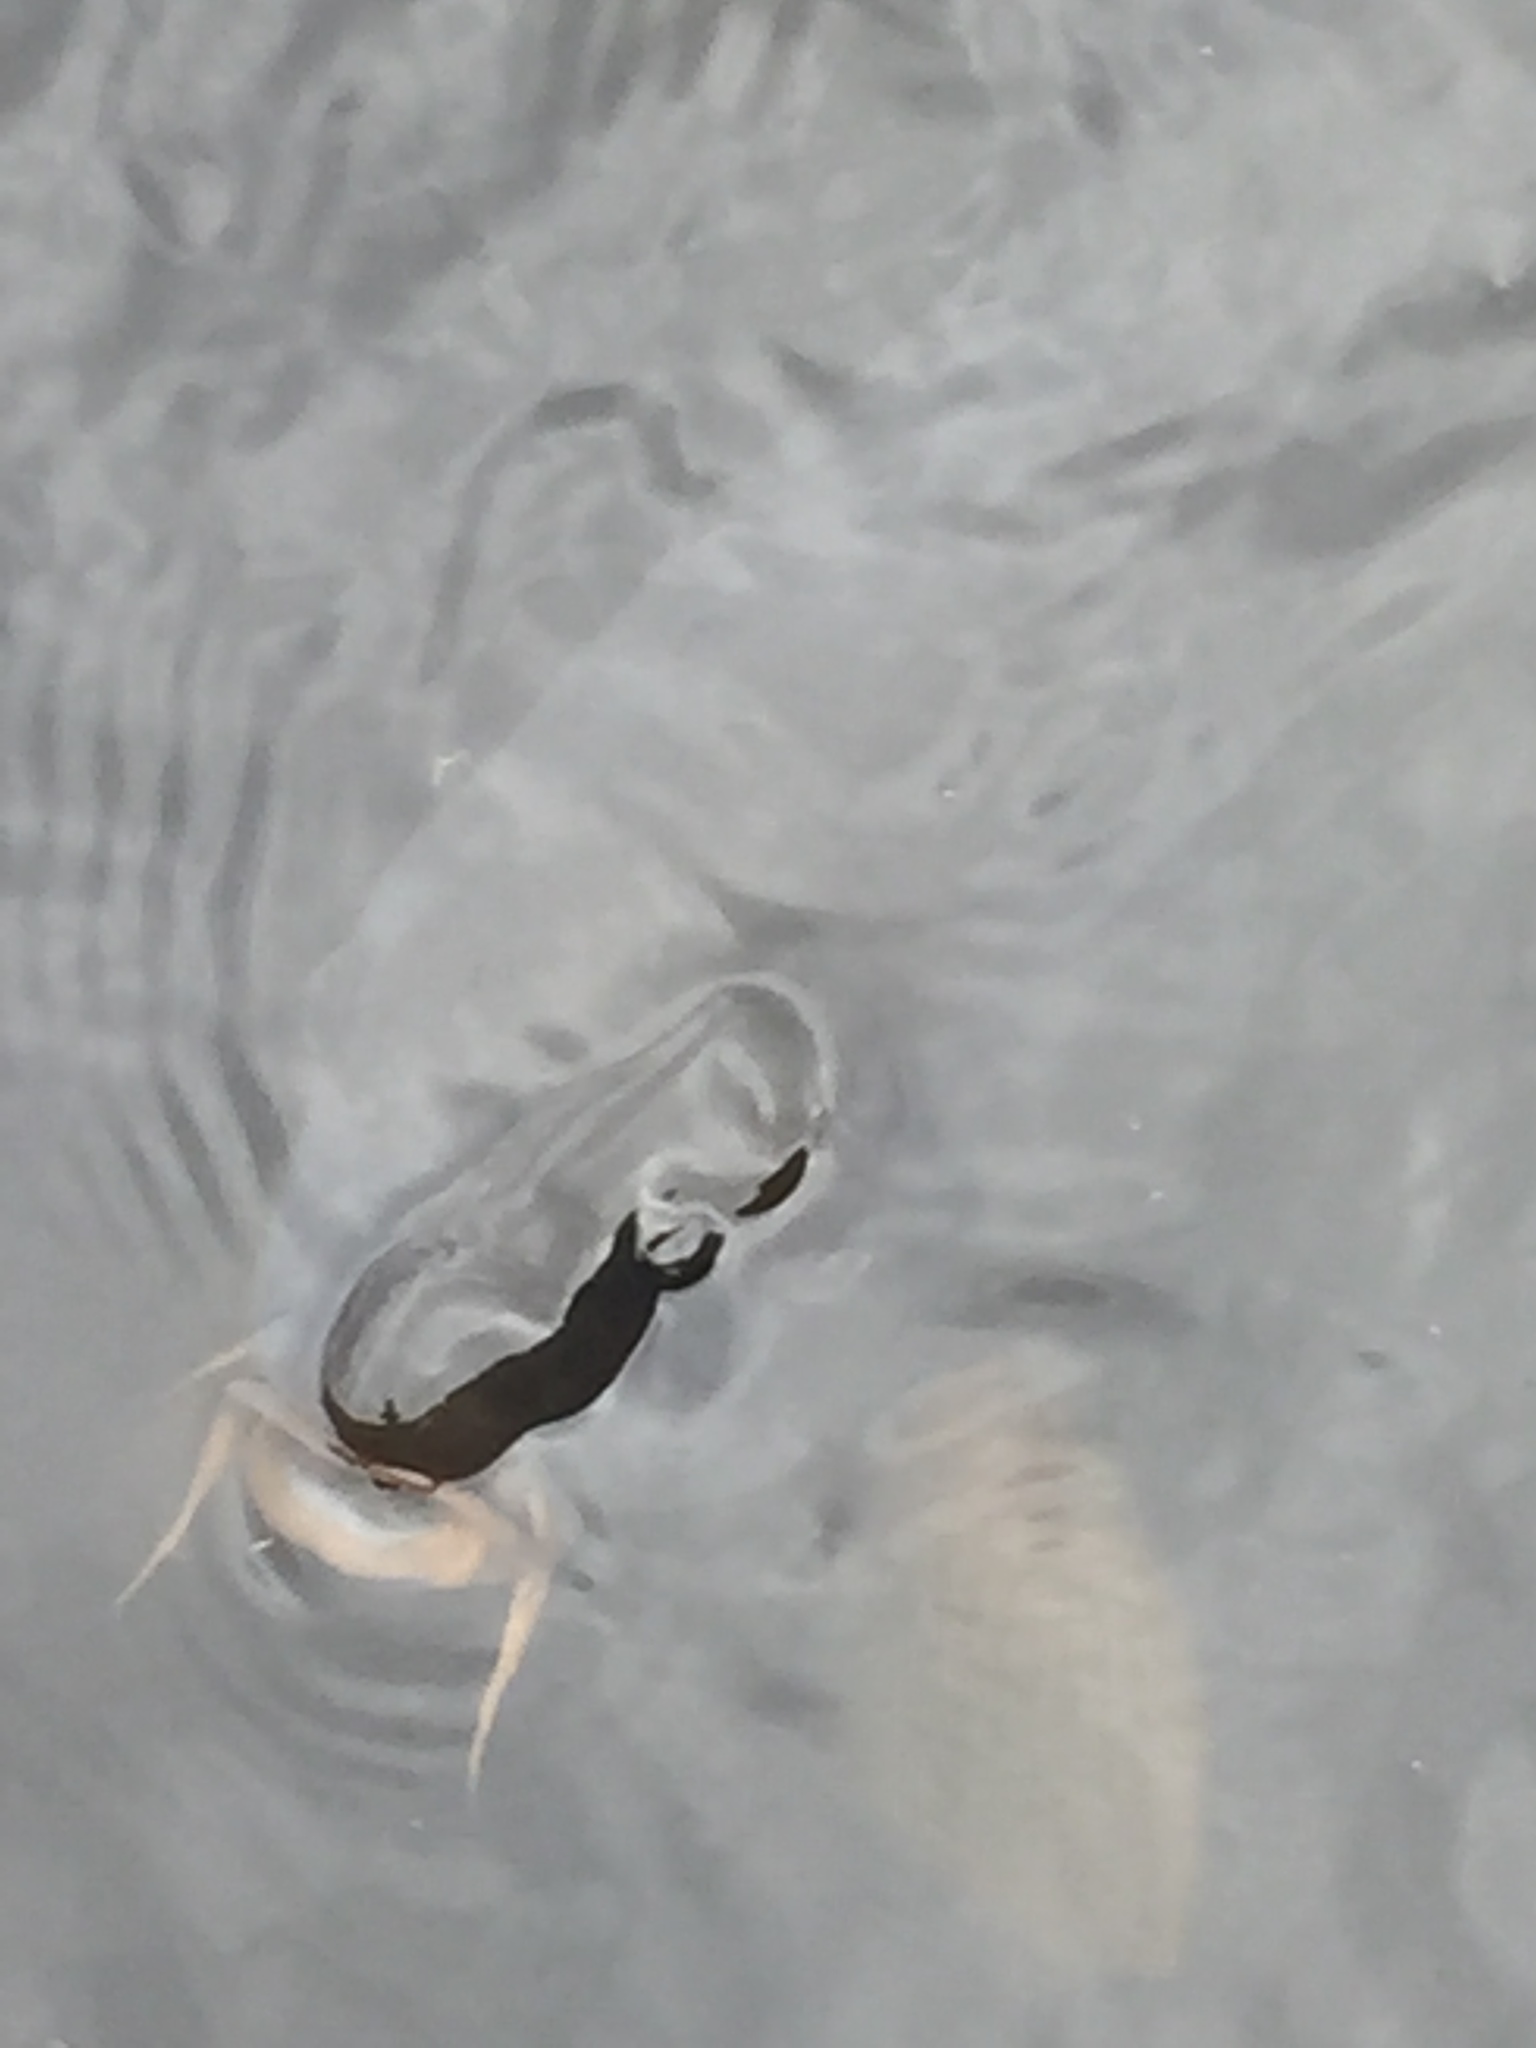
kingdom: Animalia
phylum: Chordata
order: Cypriniformes
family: Cyprinidae
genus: Cyprinus
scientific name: Cyprinus carpio
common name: Common carp
